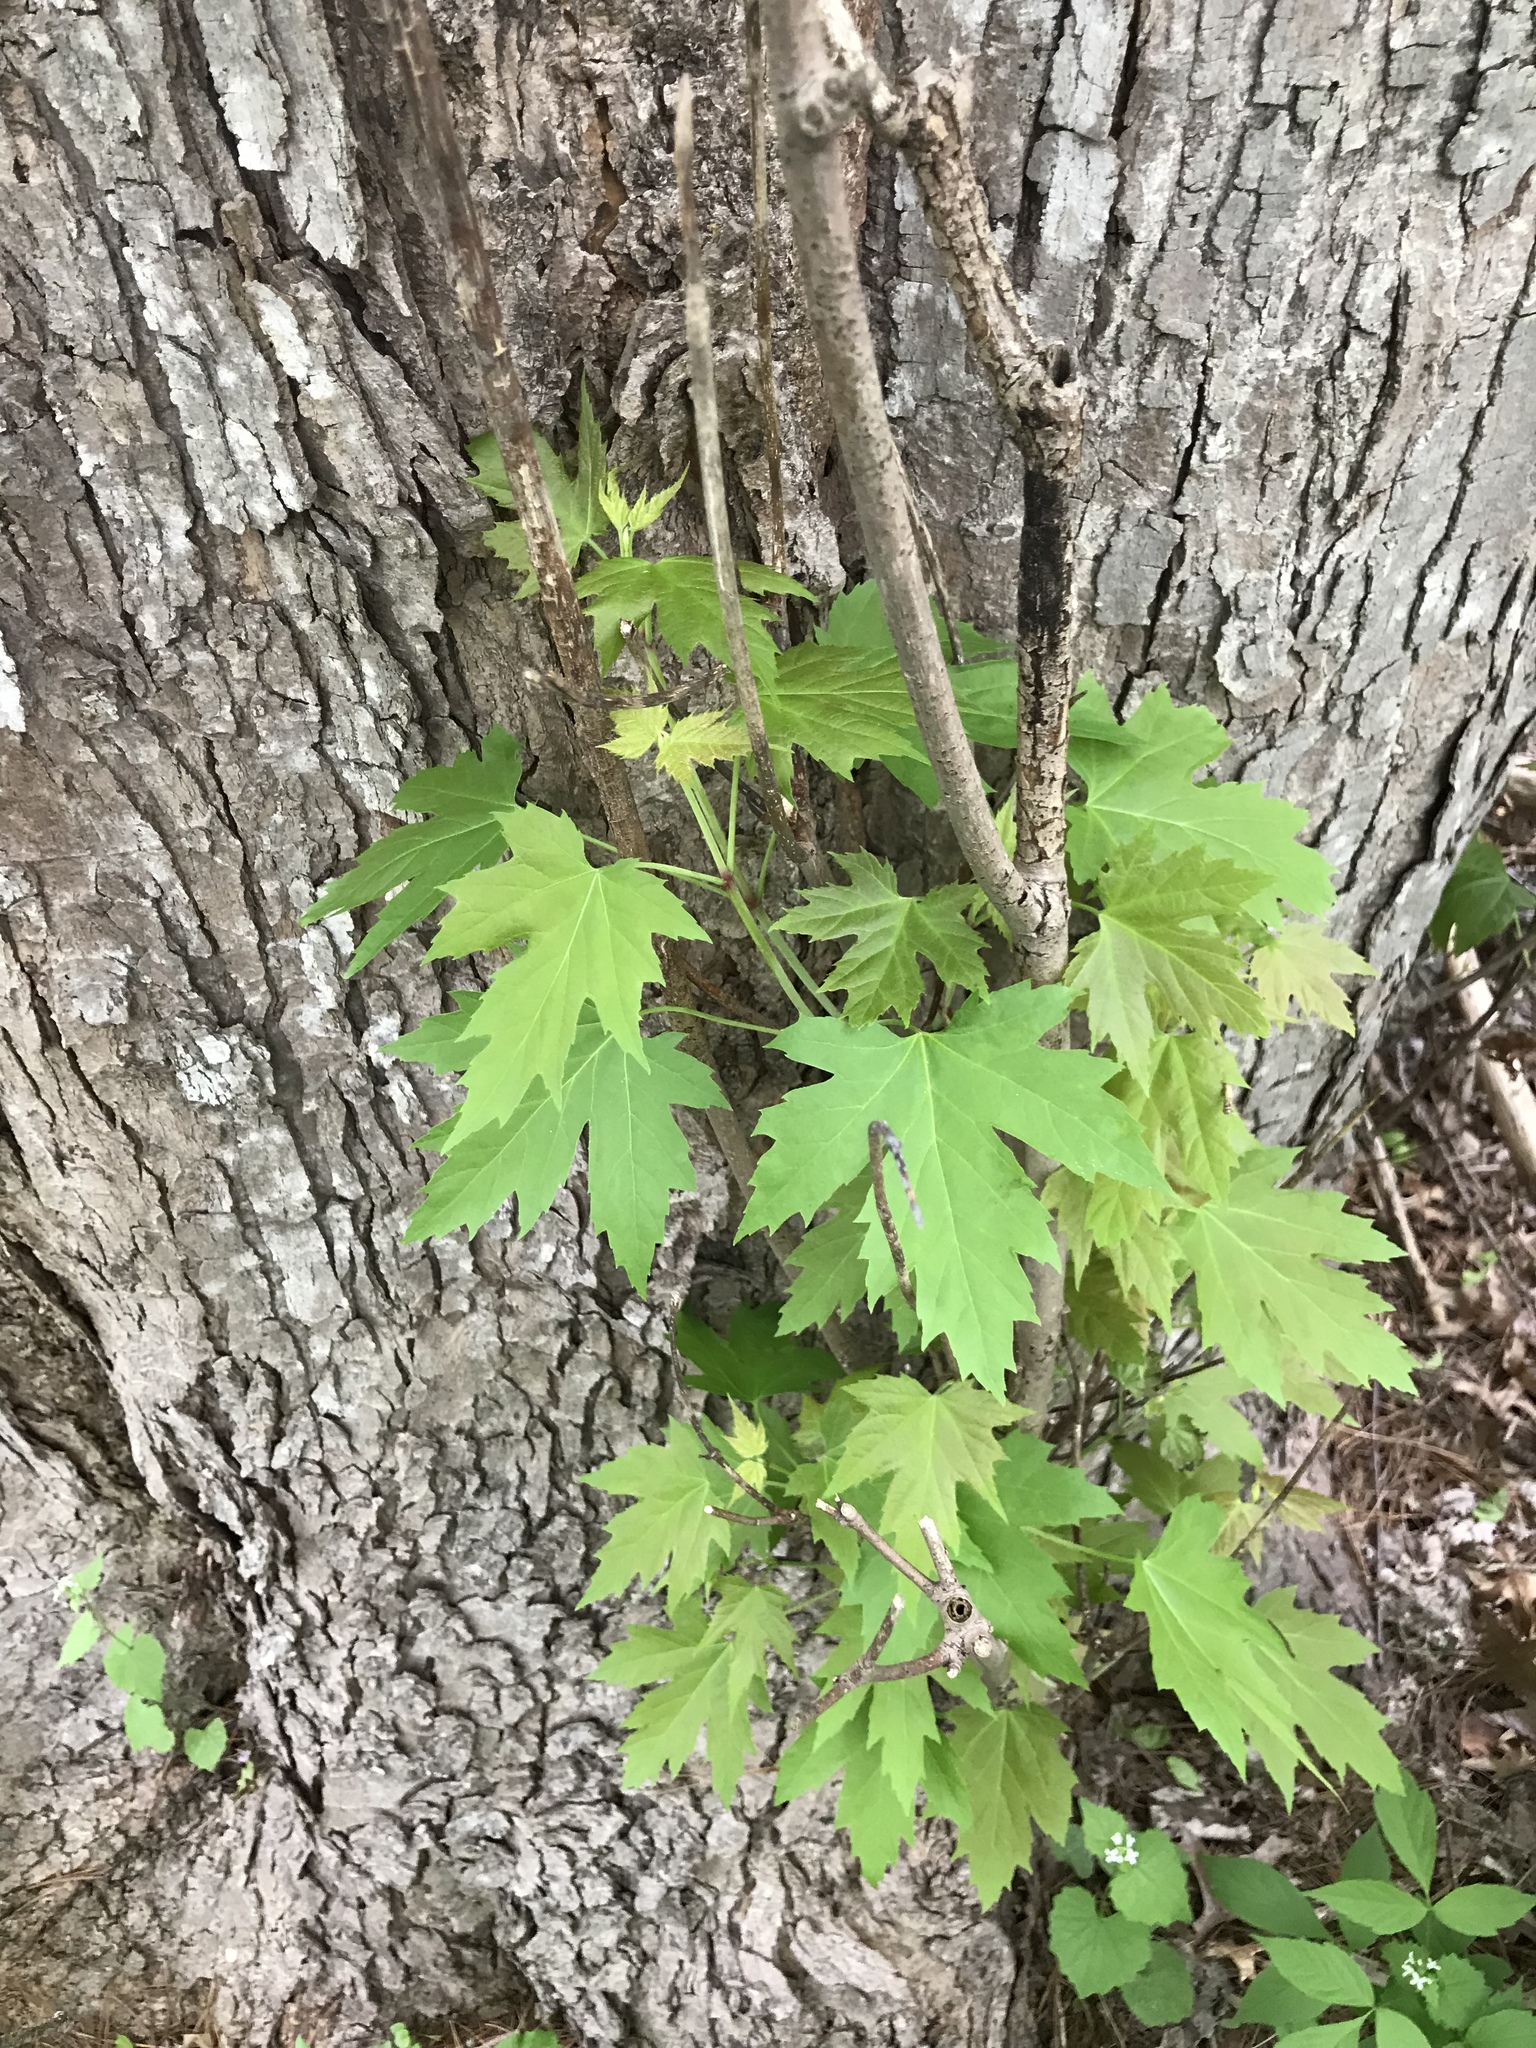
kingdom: Plantae
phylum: Tracheophyta
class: Magnoliopsida
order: Sapindales
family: Sapindaceae
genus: Acer
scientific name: Acer saccharinum
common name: Silver maple
